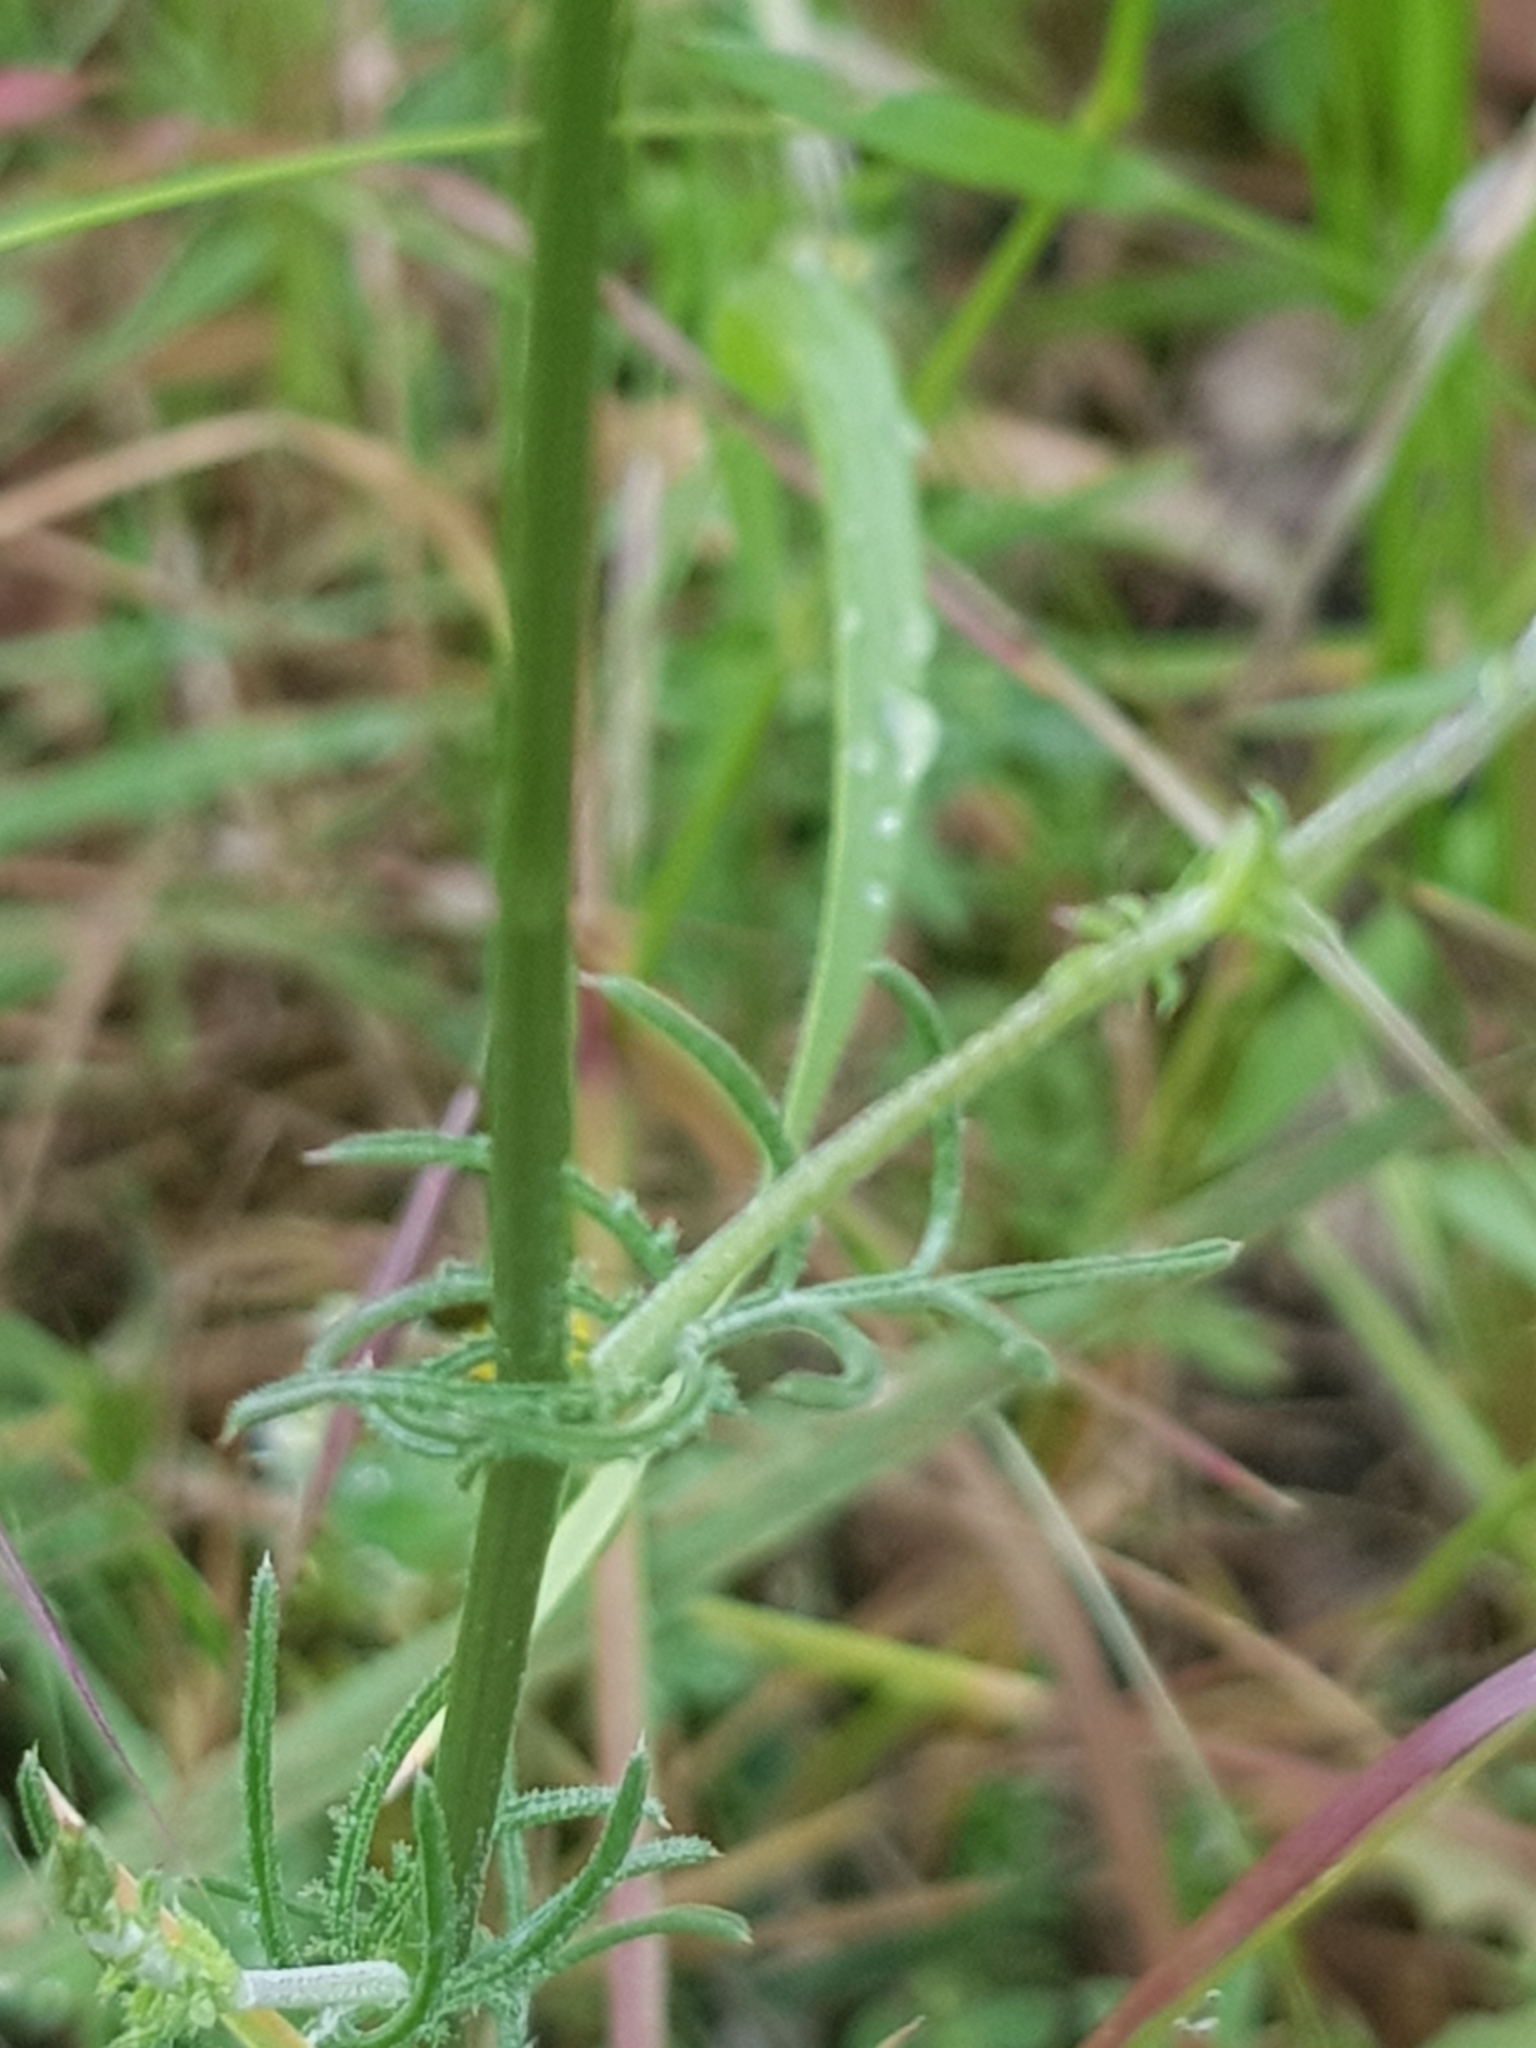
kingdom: Plantae
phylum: Tracheophyta
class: Magnoliopsida
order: Caryophyllales
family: Caryophyllaceae
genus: Silene
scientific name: Silene flos-cuculi
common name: Ragged-robin
